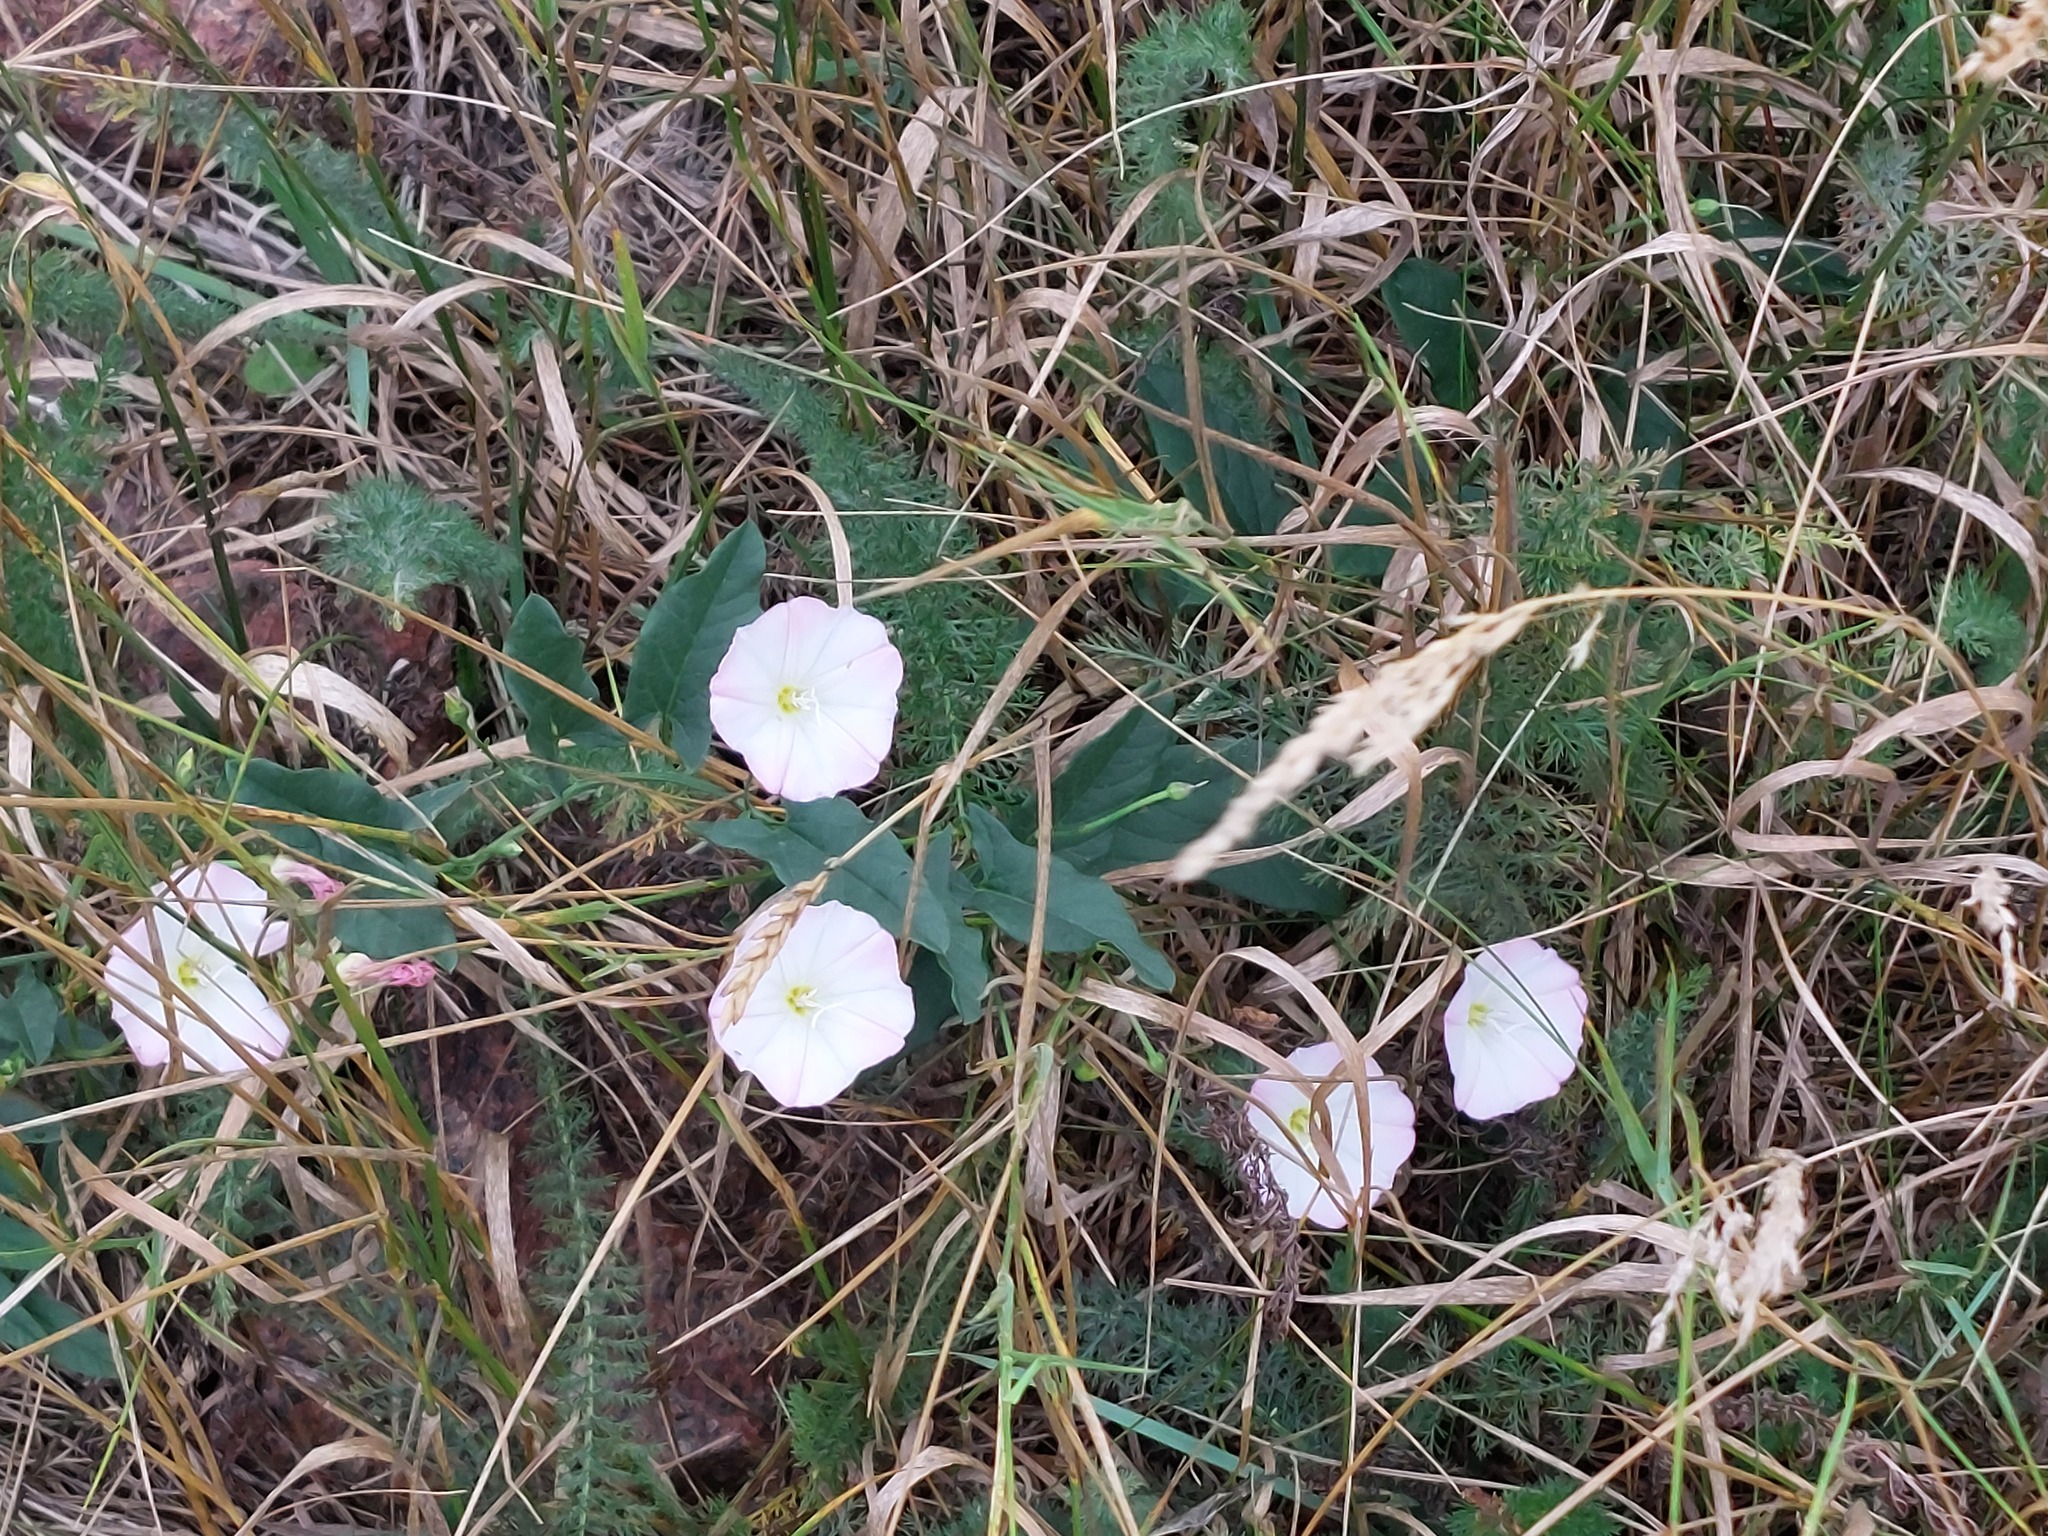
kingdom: Plantae
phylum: Tracheophyta
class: Magnoliopsida
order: Solanales
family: Convolvulaceae
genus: Convolvulus
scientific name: Convolvulus arvensis
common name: Field bindweed
